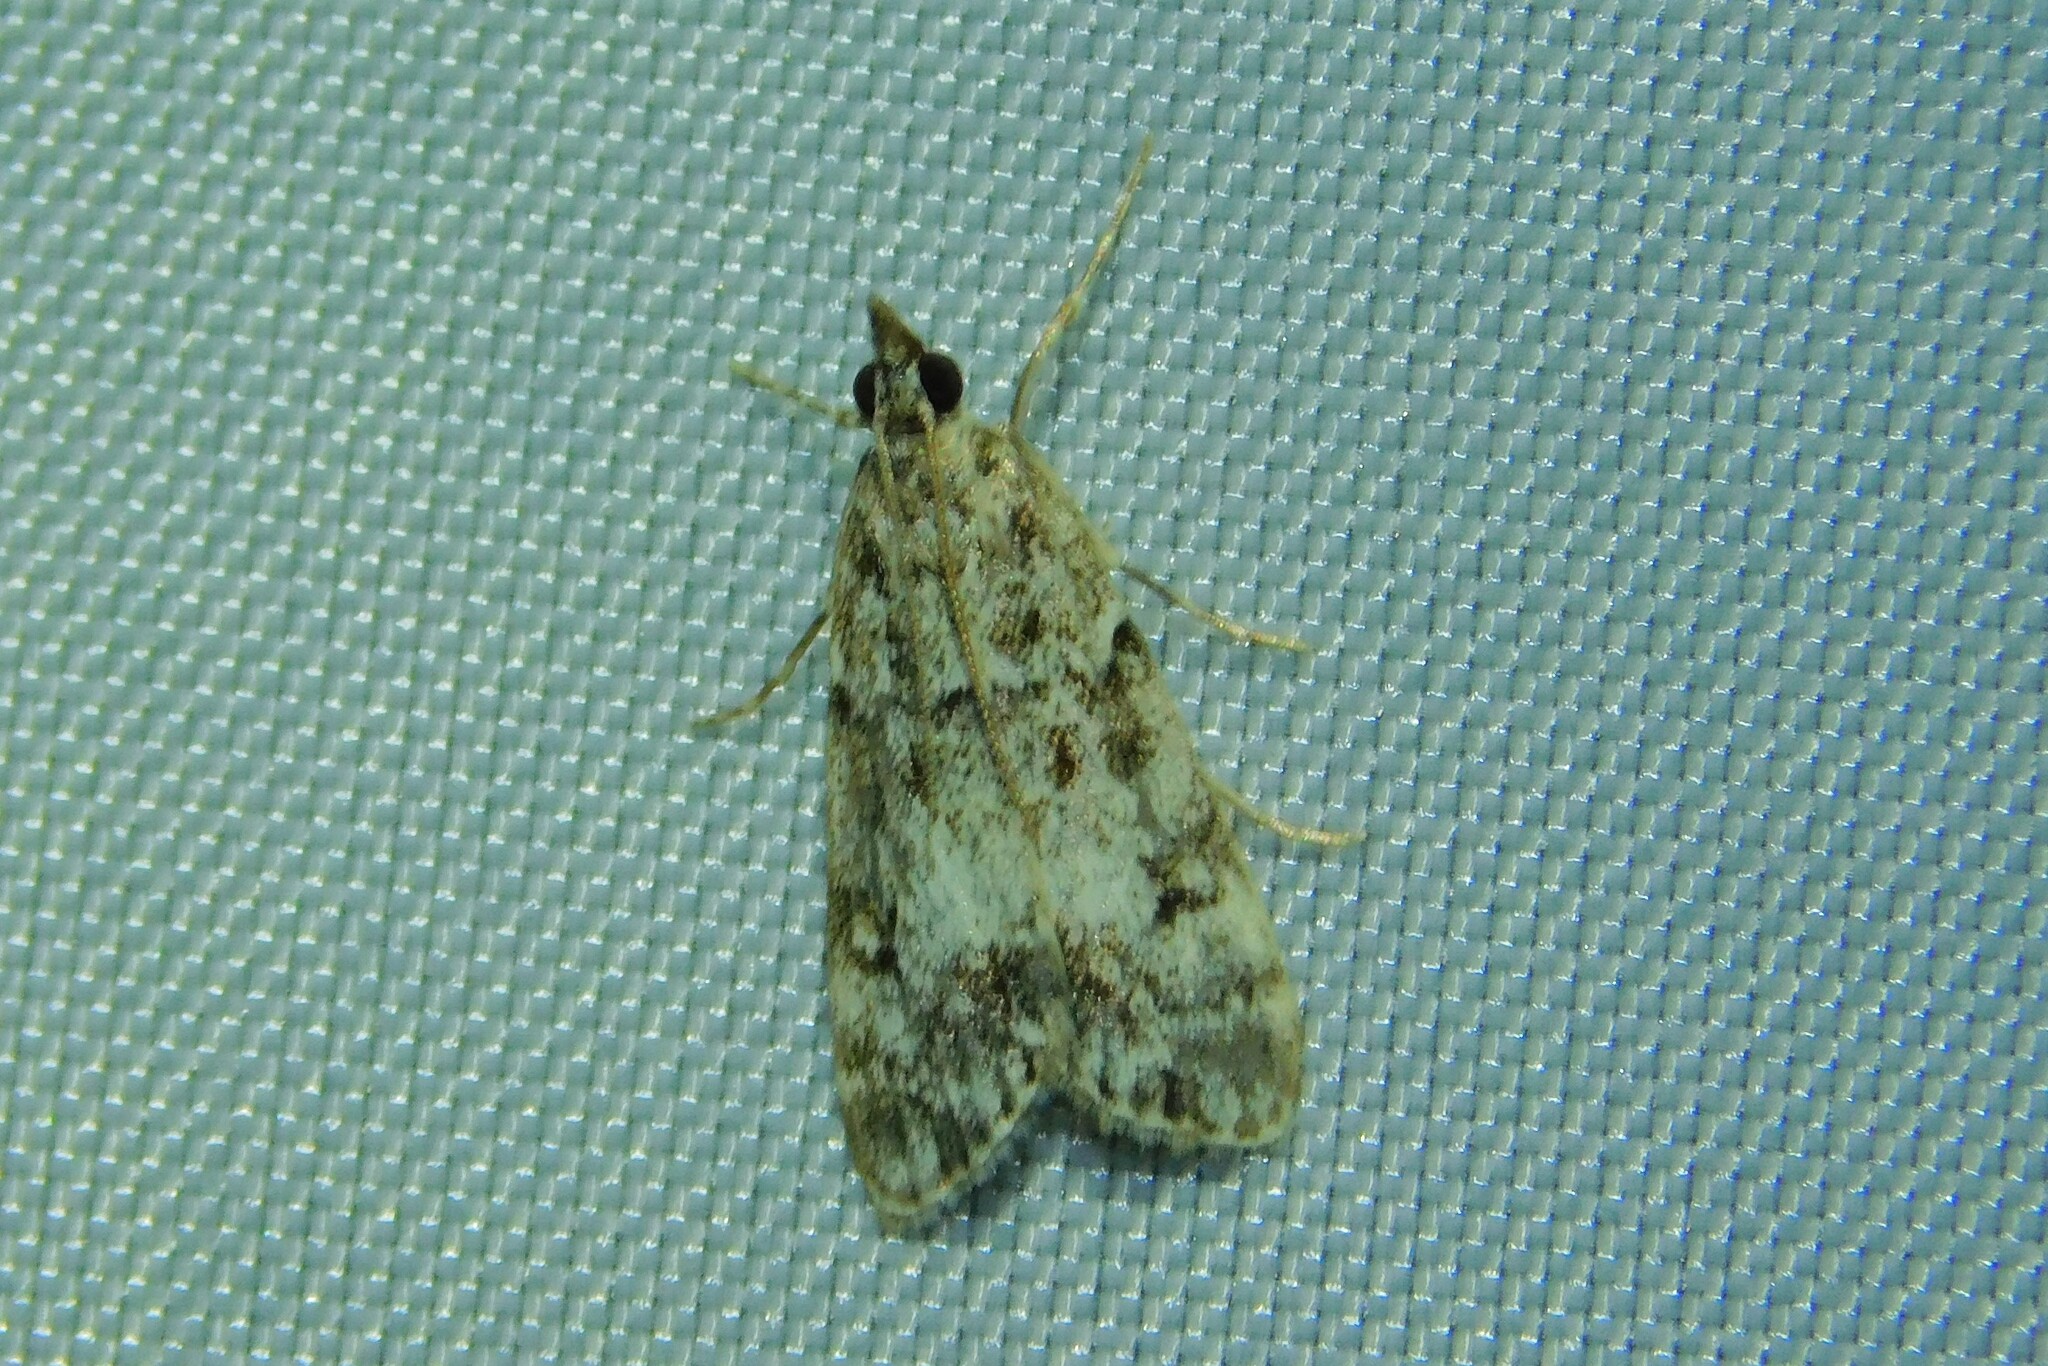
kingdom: Animalia
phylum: Arthropoda
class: Insecta
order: Lepidoptera
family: Crambidae
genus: Eudonia
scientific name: Eudonia lacustrata
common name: Little grey
